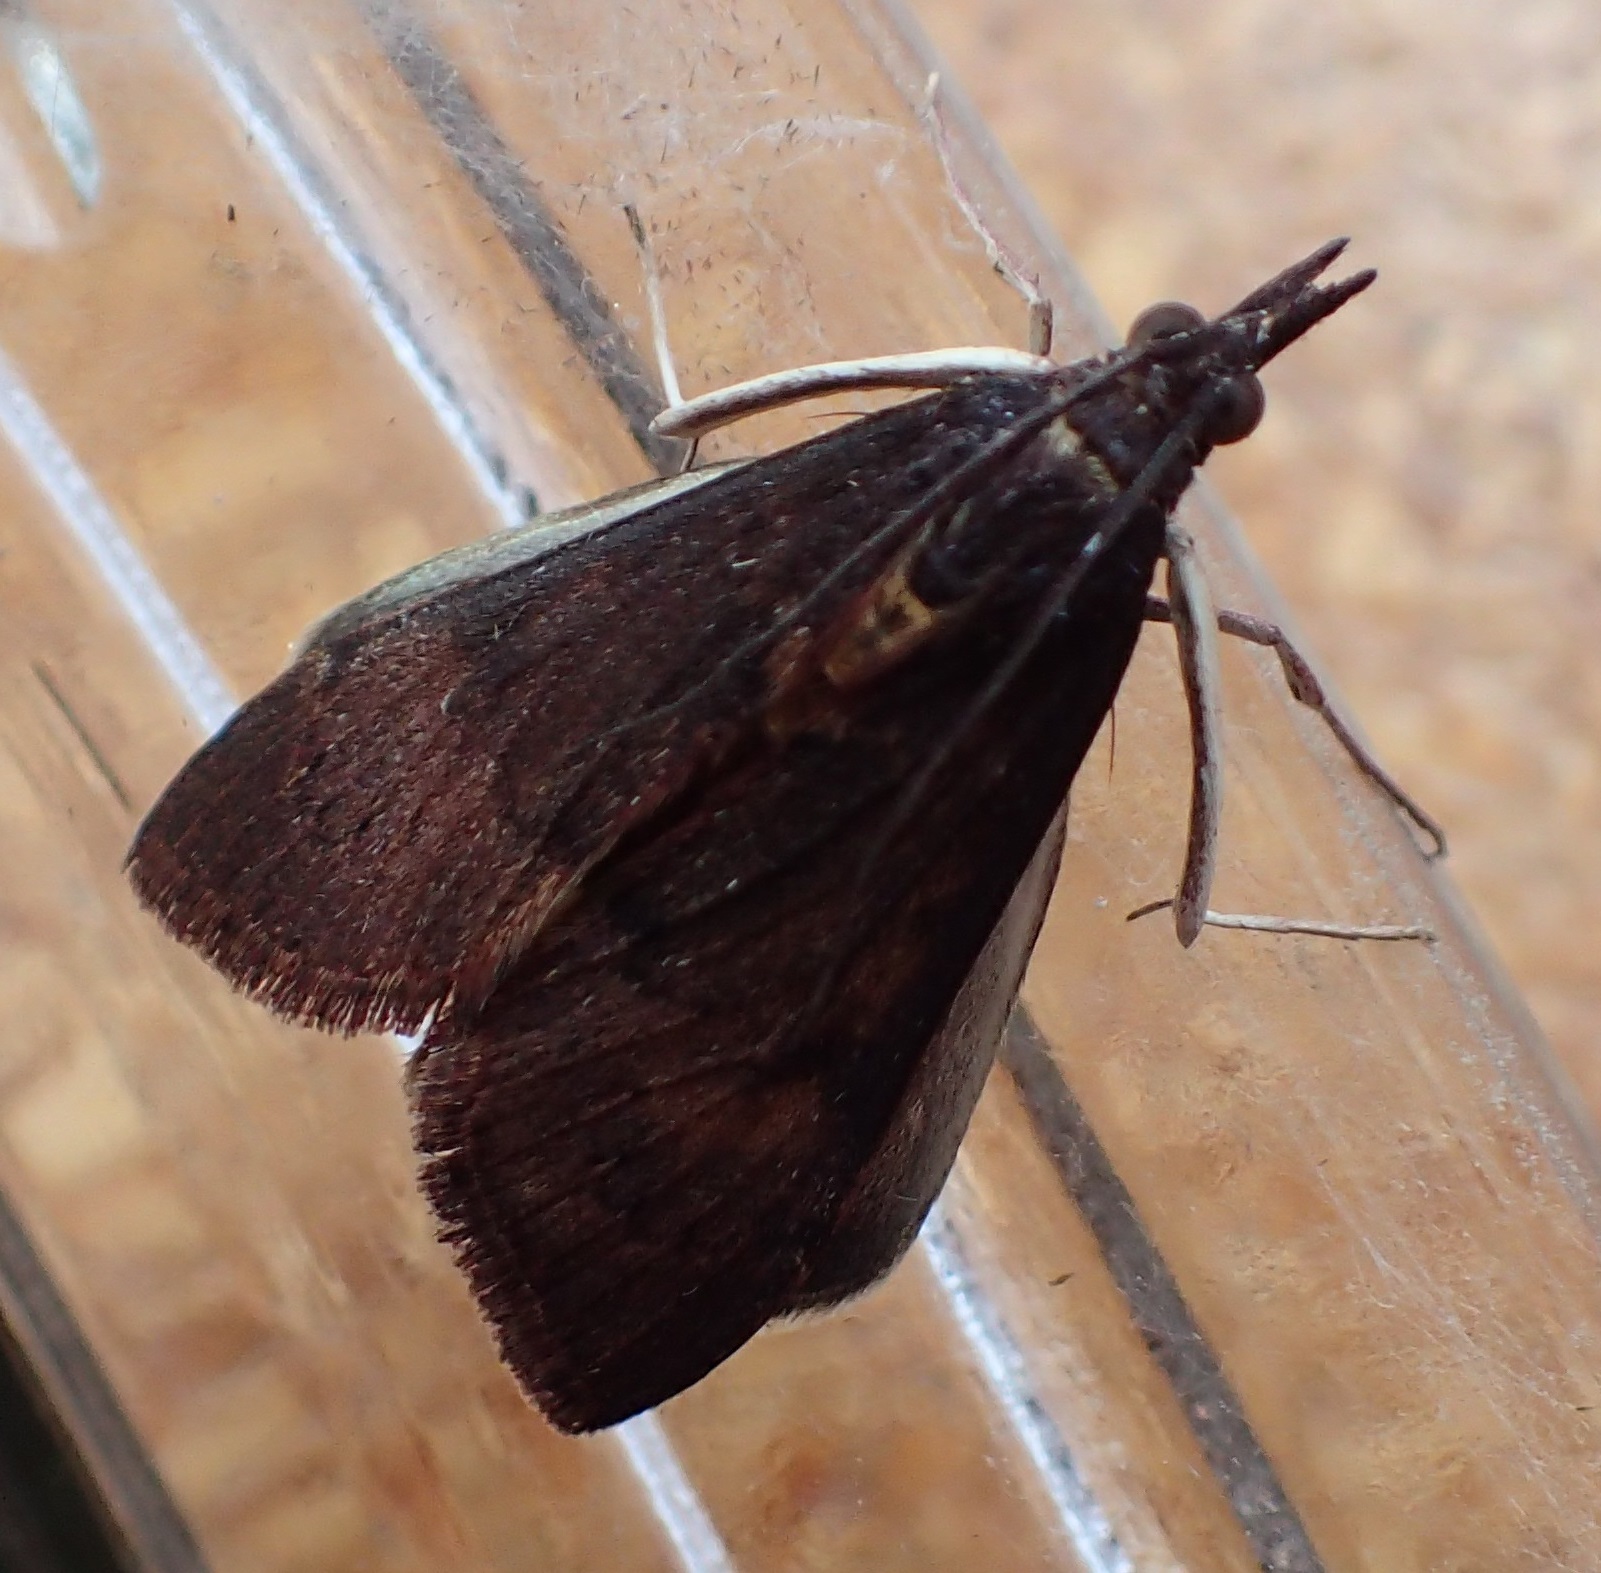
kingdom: Animalia
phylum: Arthropoda
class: Insecta
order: Lepidoptera
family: Crambidae
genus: Uresiphita
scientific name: Uresiphita ornithopteralis
